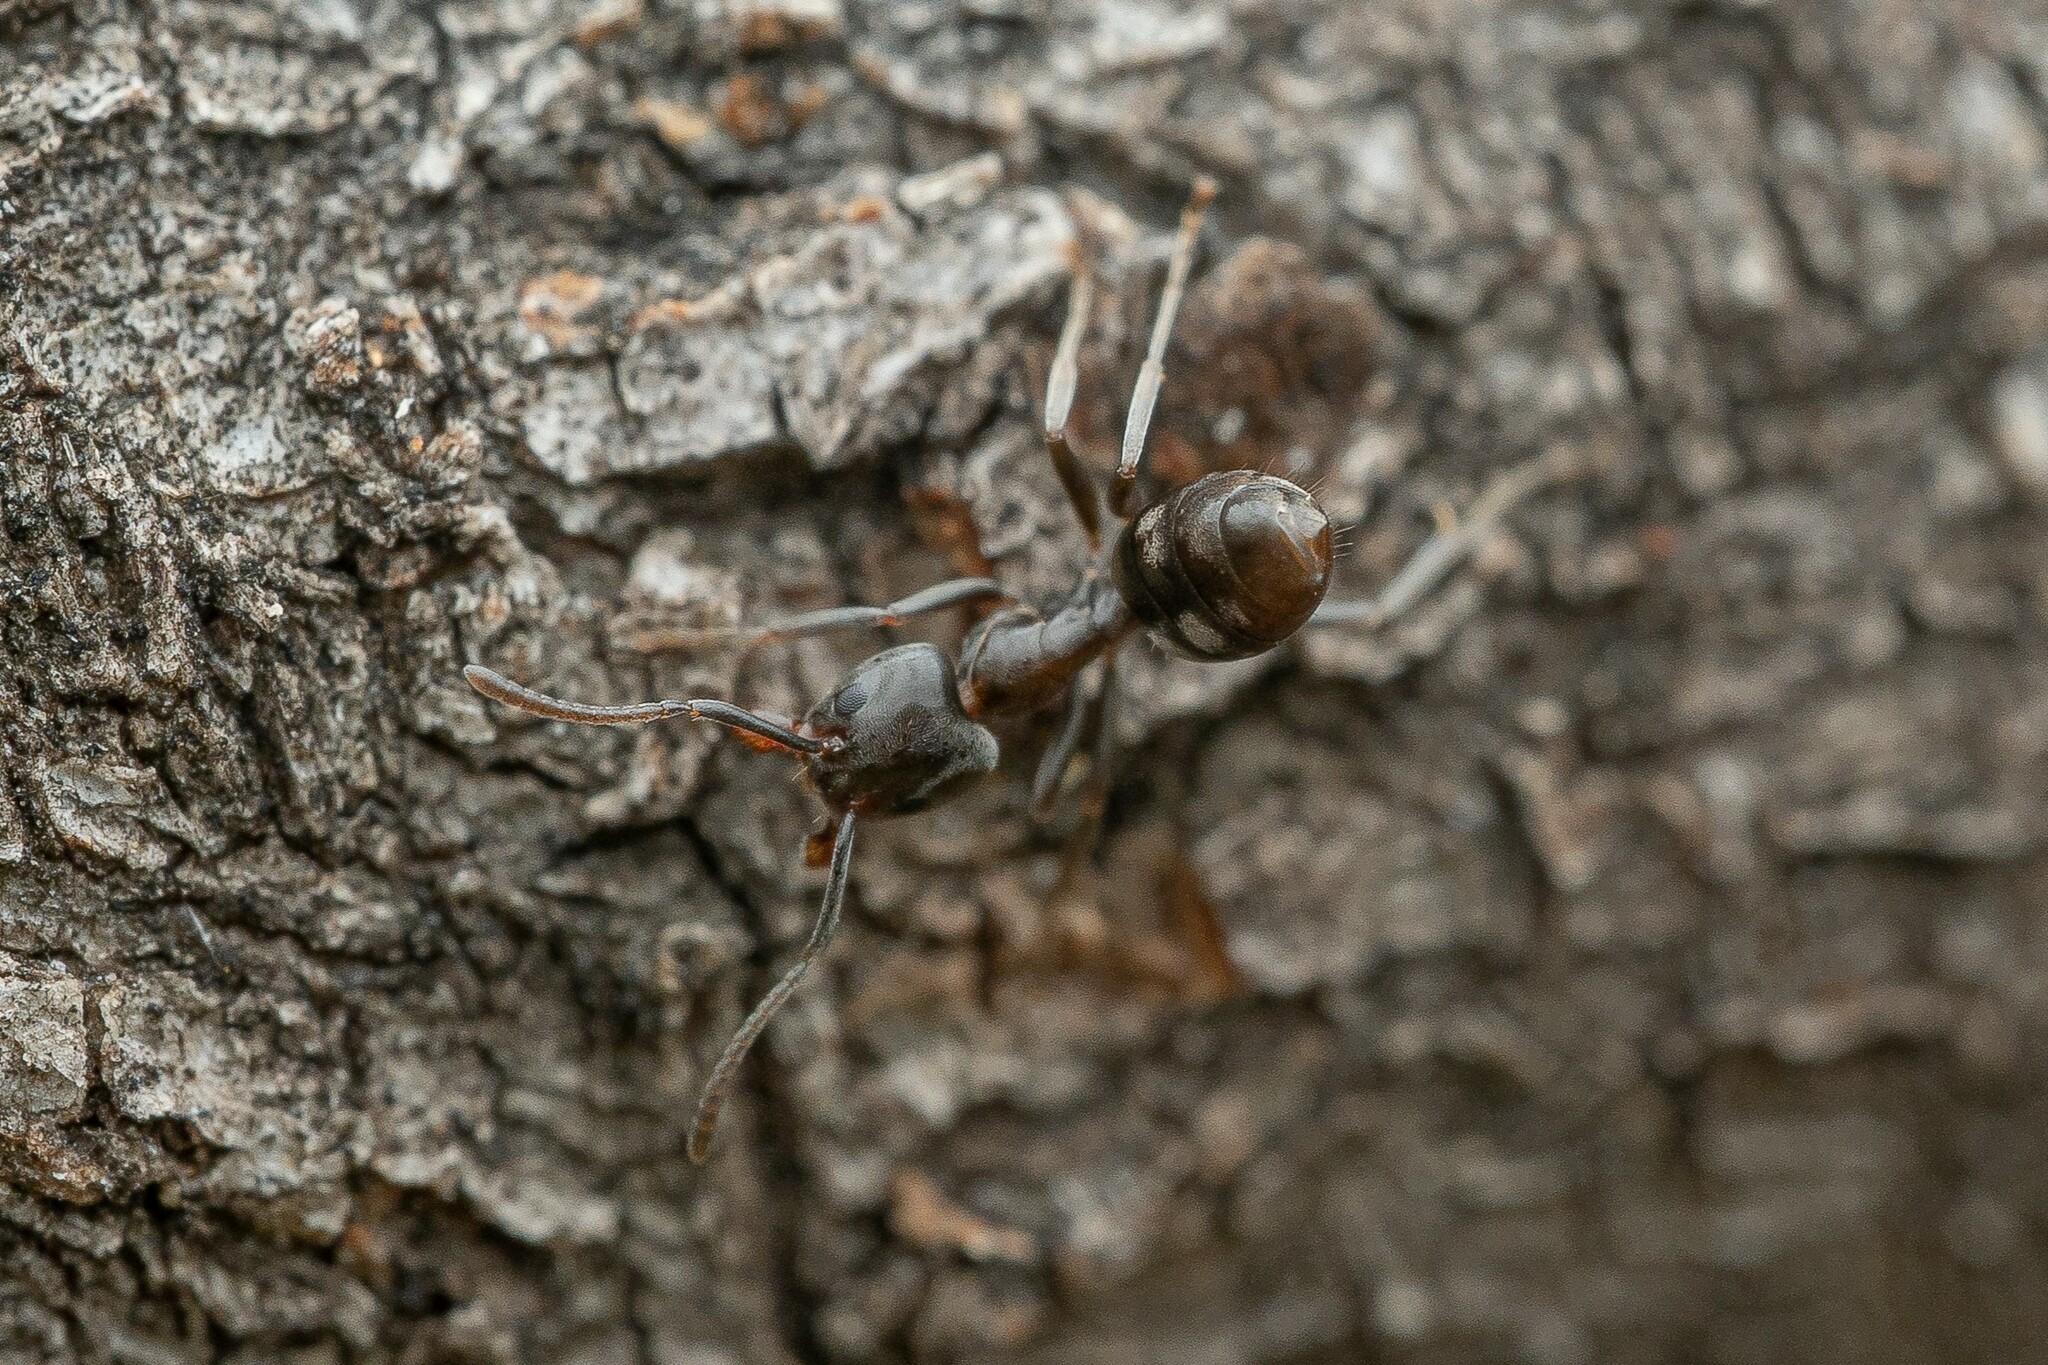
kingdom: Animalia
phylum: Arthropoda
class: Insecta
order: Hymenoptera
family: Formicidae
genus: Liometopum
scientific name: Liometopum luctuosum
